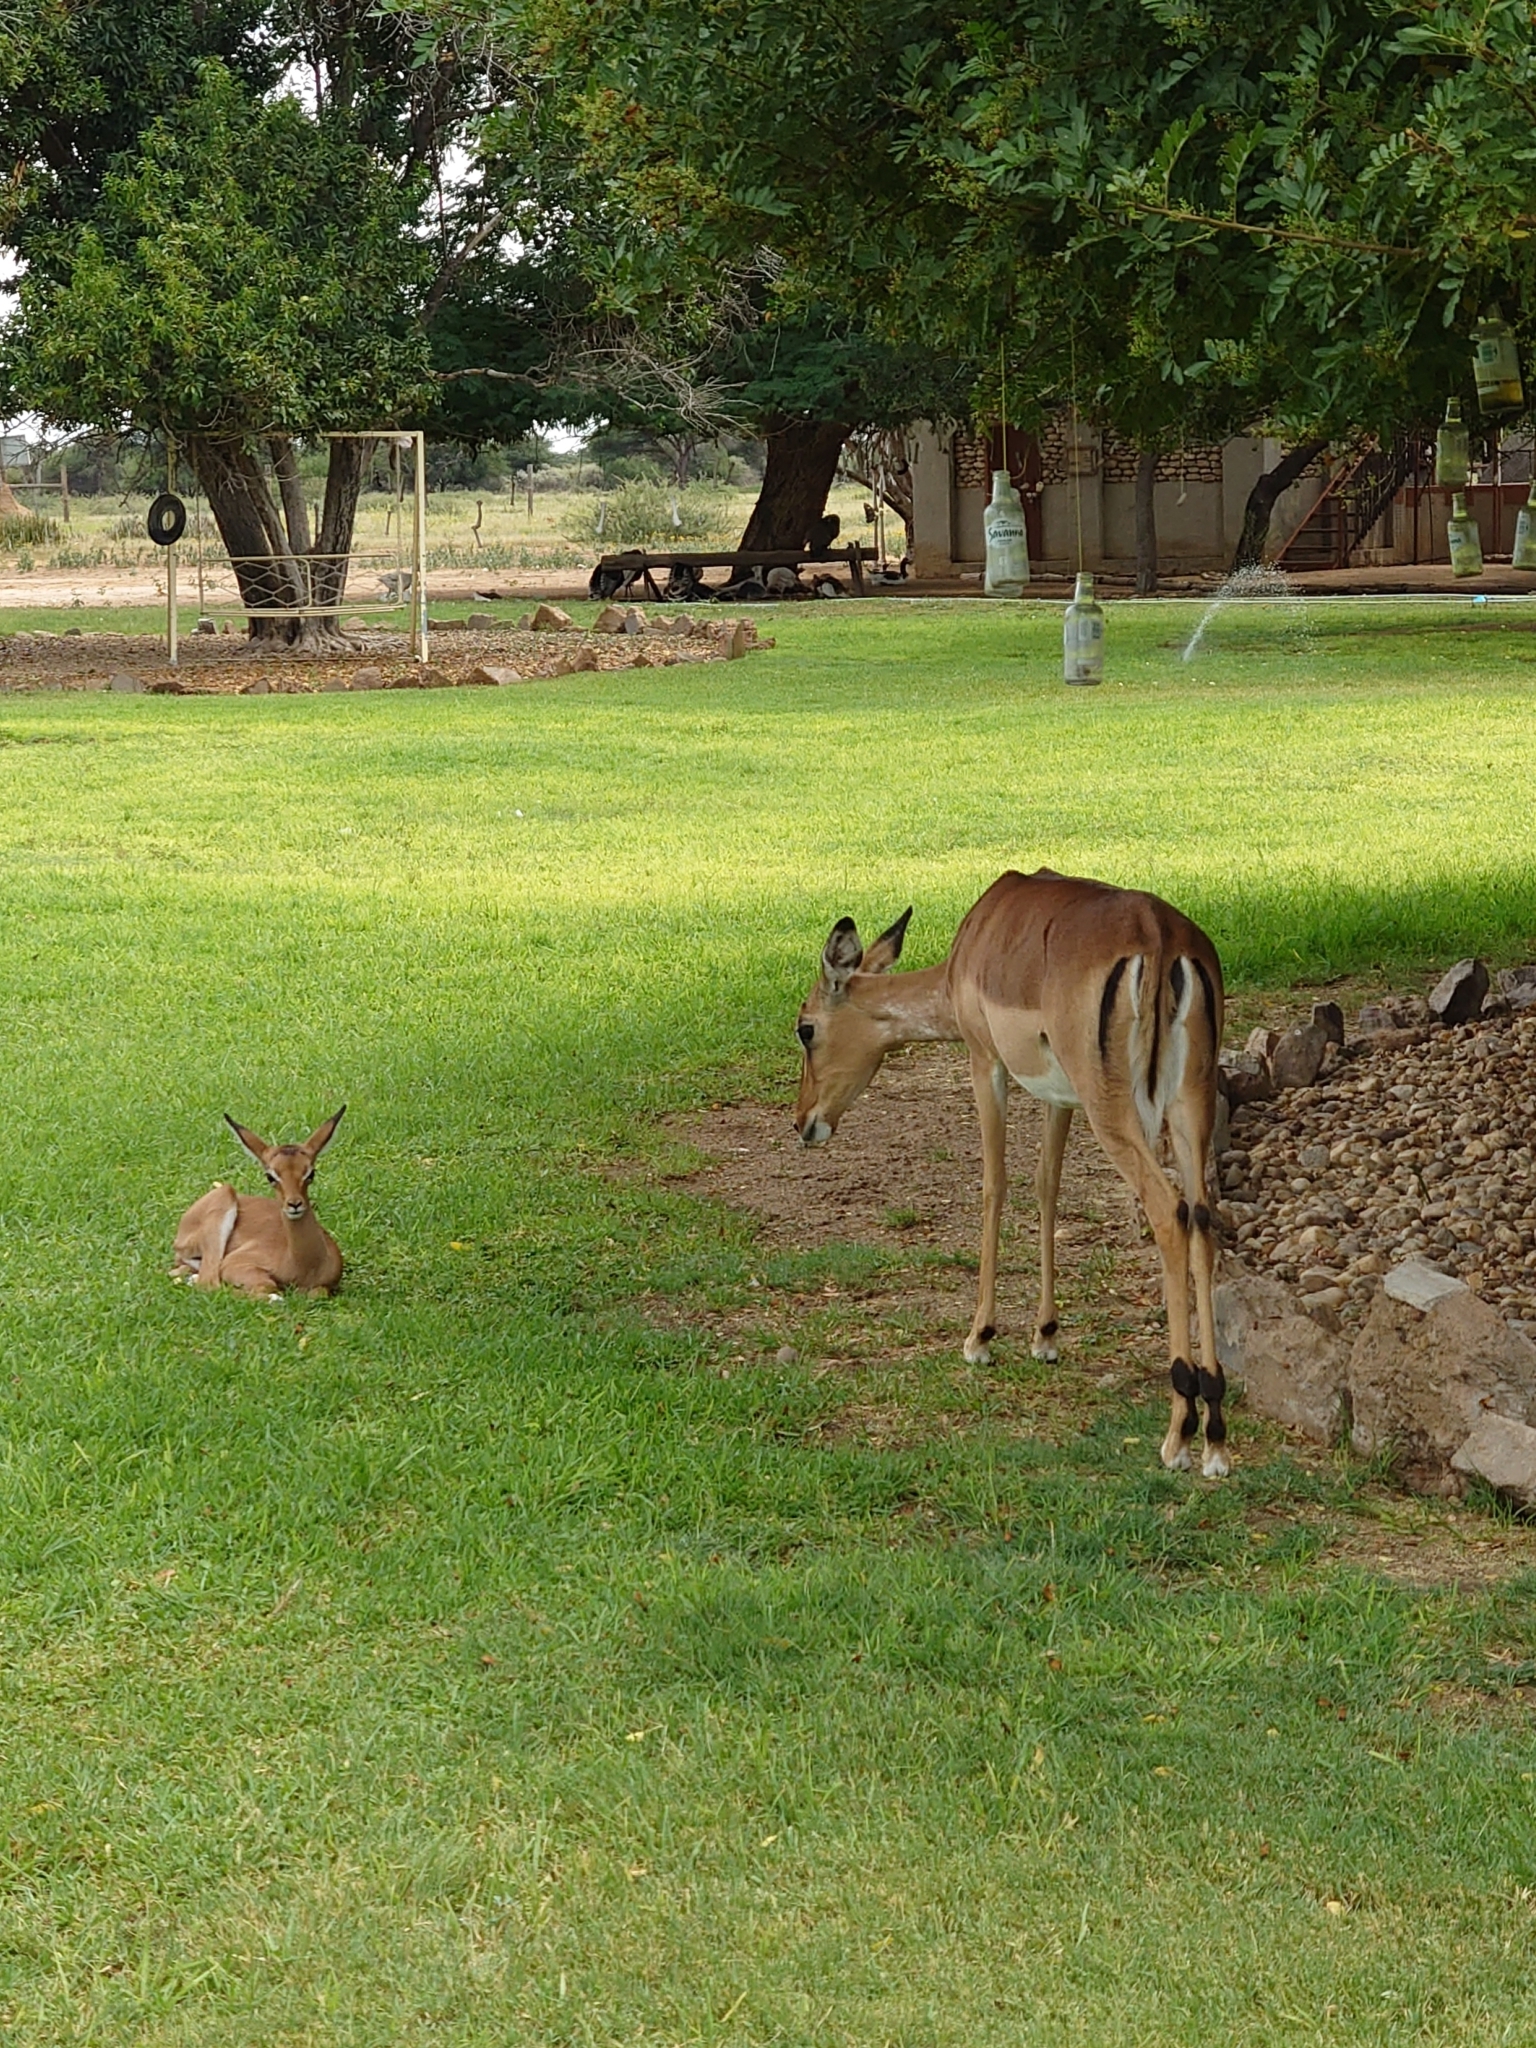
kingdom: Animalia
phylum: Chordata
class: Mammalia
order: Artiodactyla
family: Bovidae
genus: Aepyceros
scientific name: Aepyceros melampus
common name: Impala
